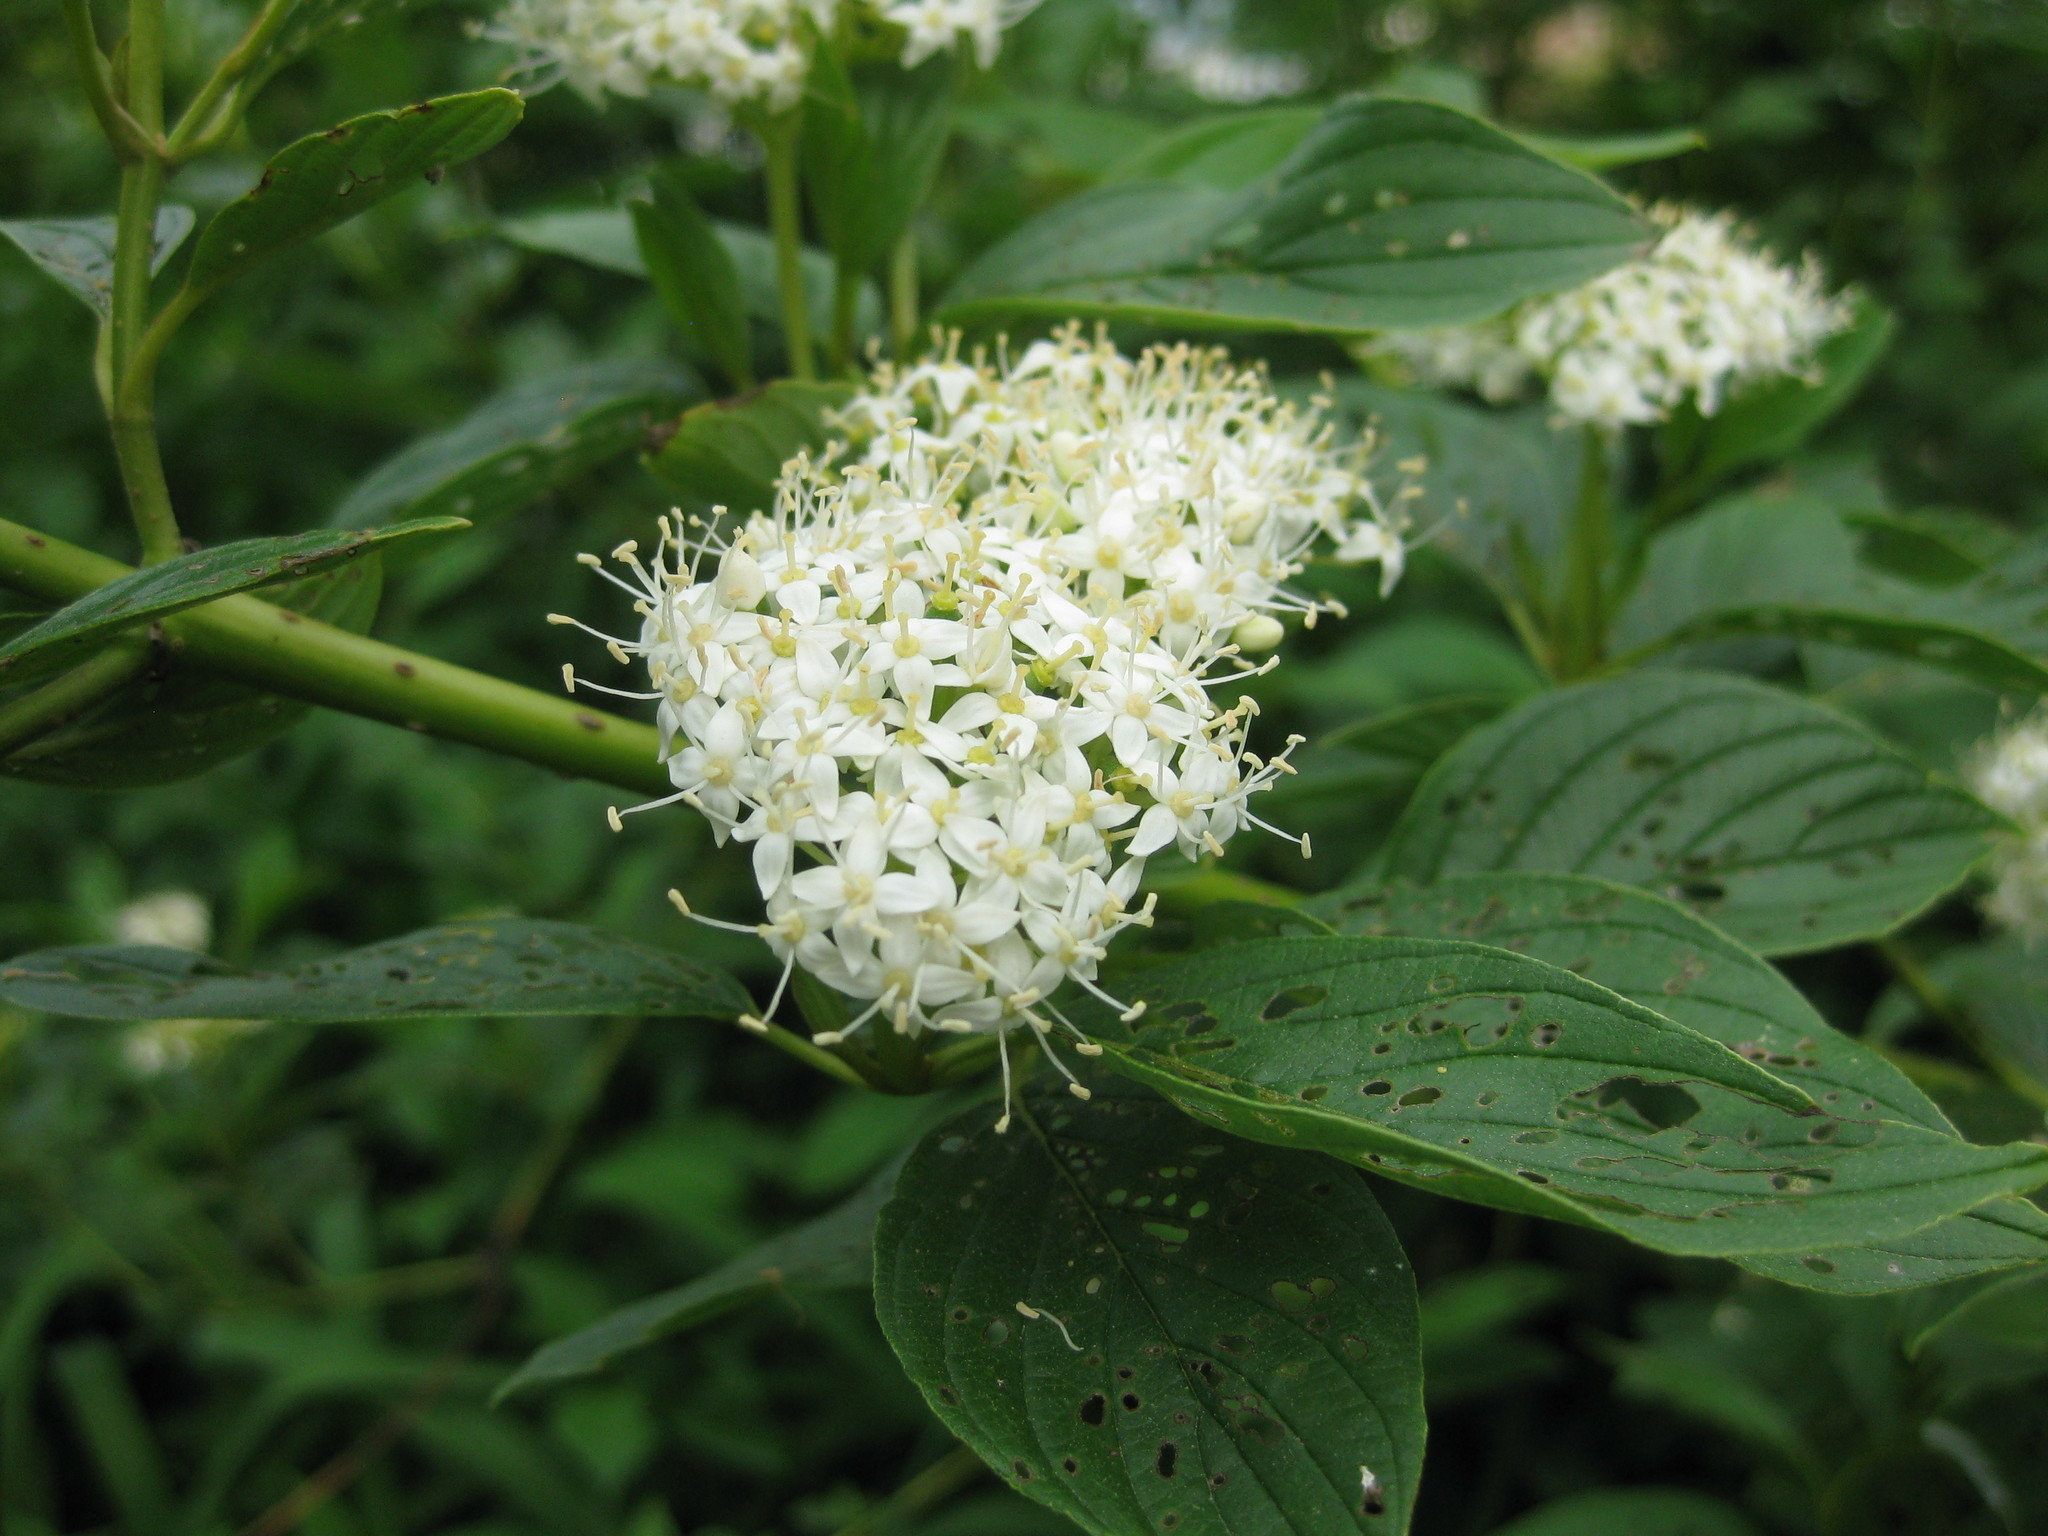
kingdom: Plantae
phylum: Tracheophyta
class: Magnoliopsida
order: Cornales
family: Cornaceae
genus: Cornus
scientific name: Cornus sericea
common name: Red-osier dogwood
